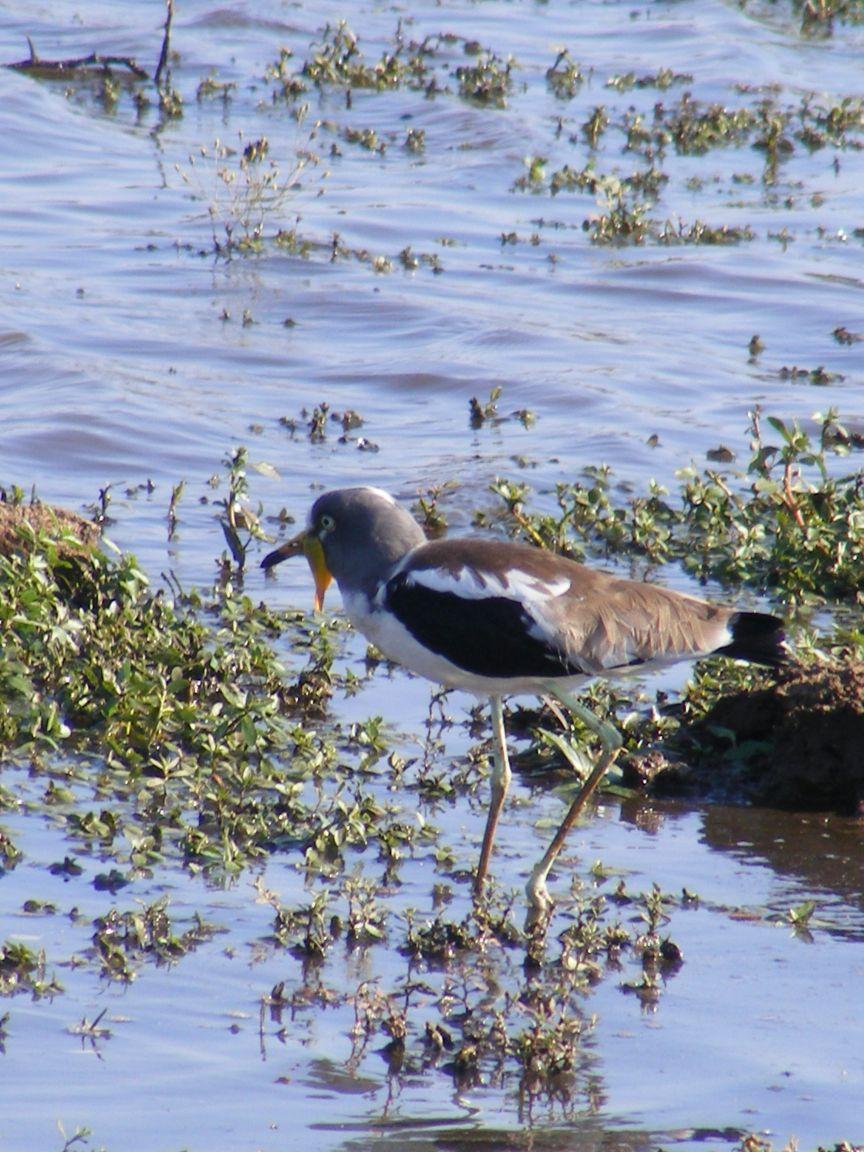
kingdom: Animalia
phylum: Chordata
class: Aves
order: Charadriiformes
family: Charadriidae
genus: Vanellus
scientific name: Vanellus albiceps
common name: White-crowned lapwing
